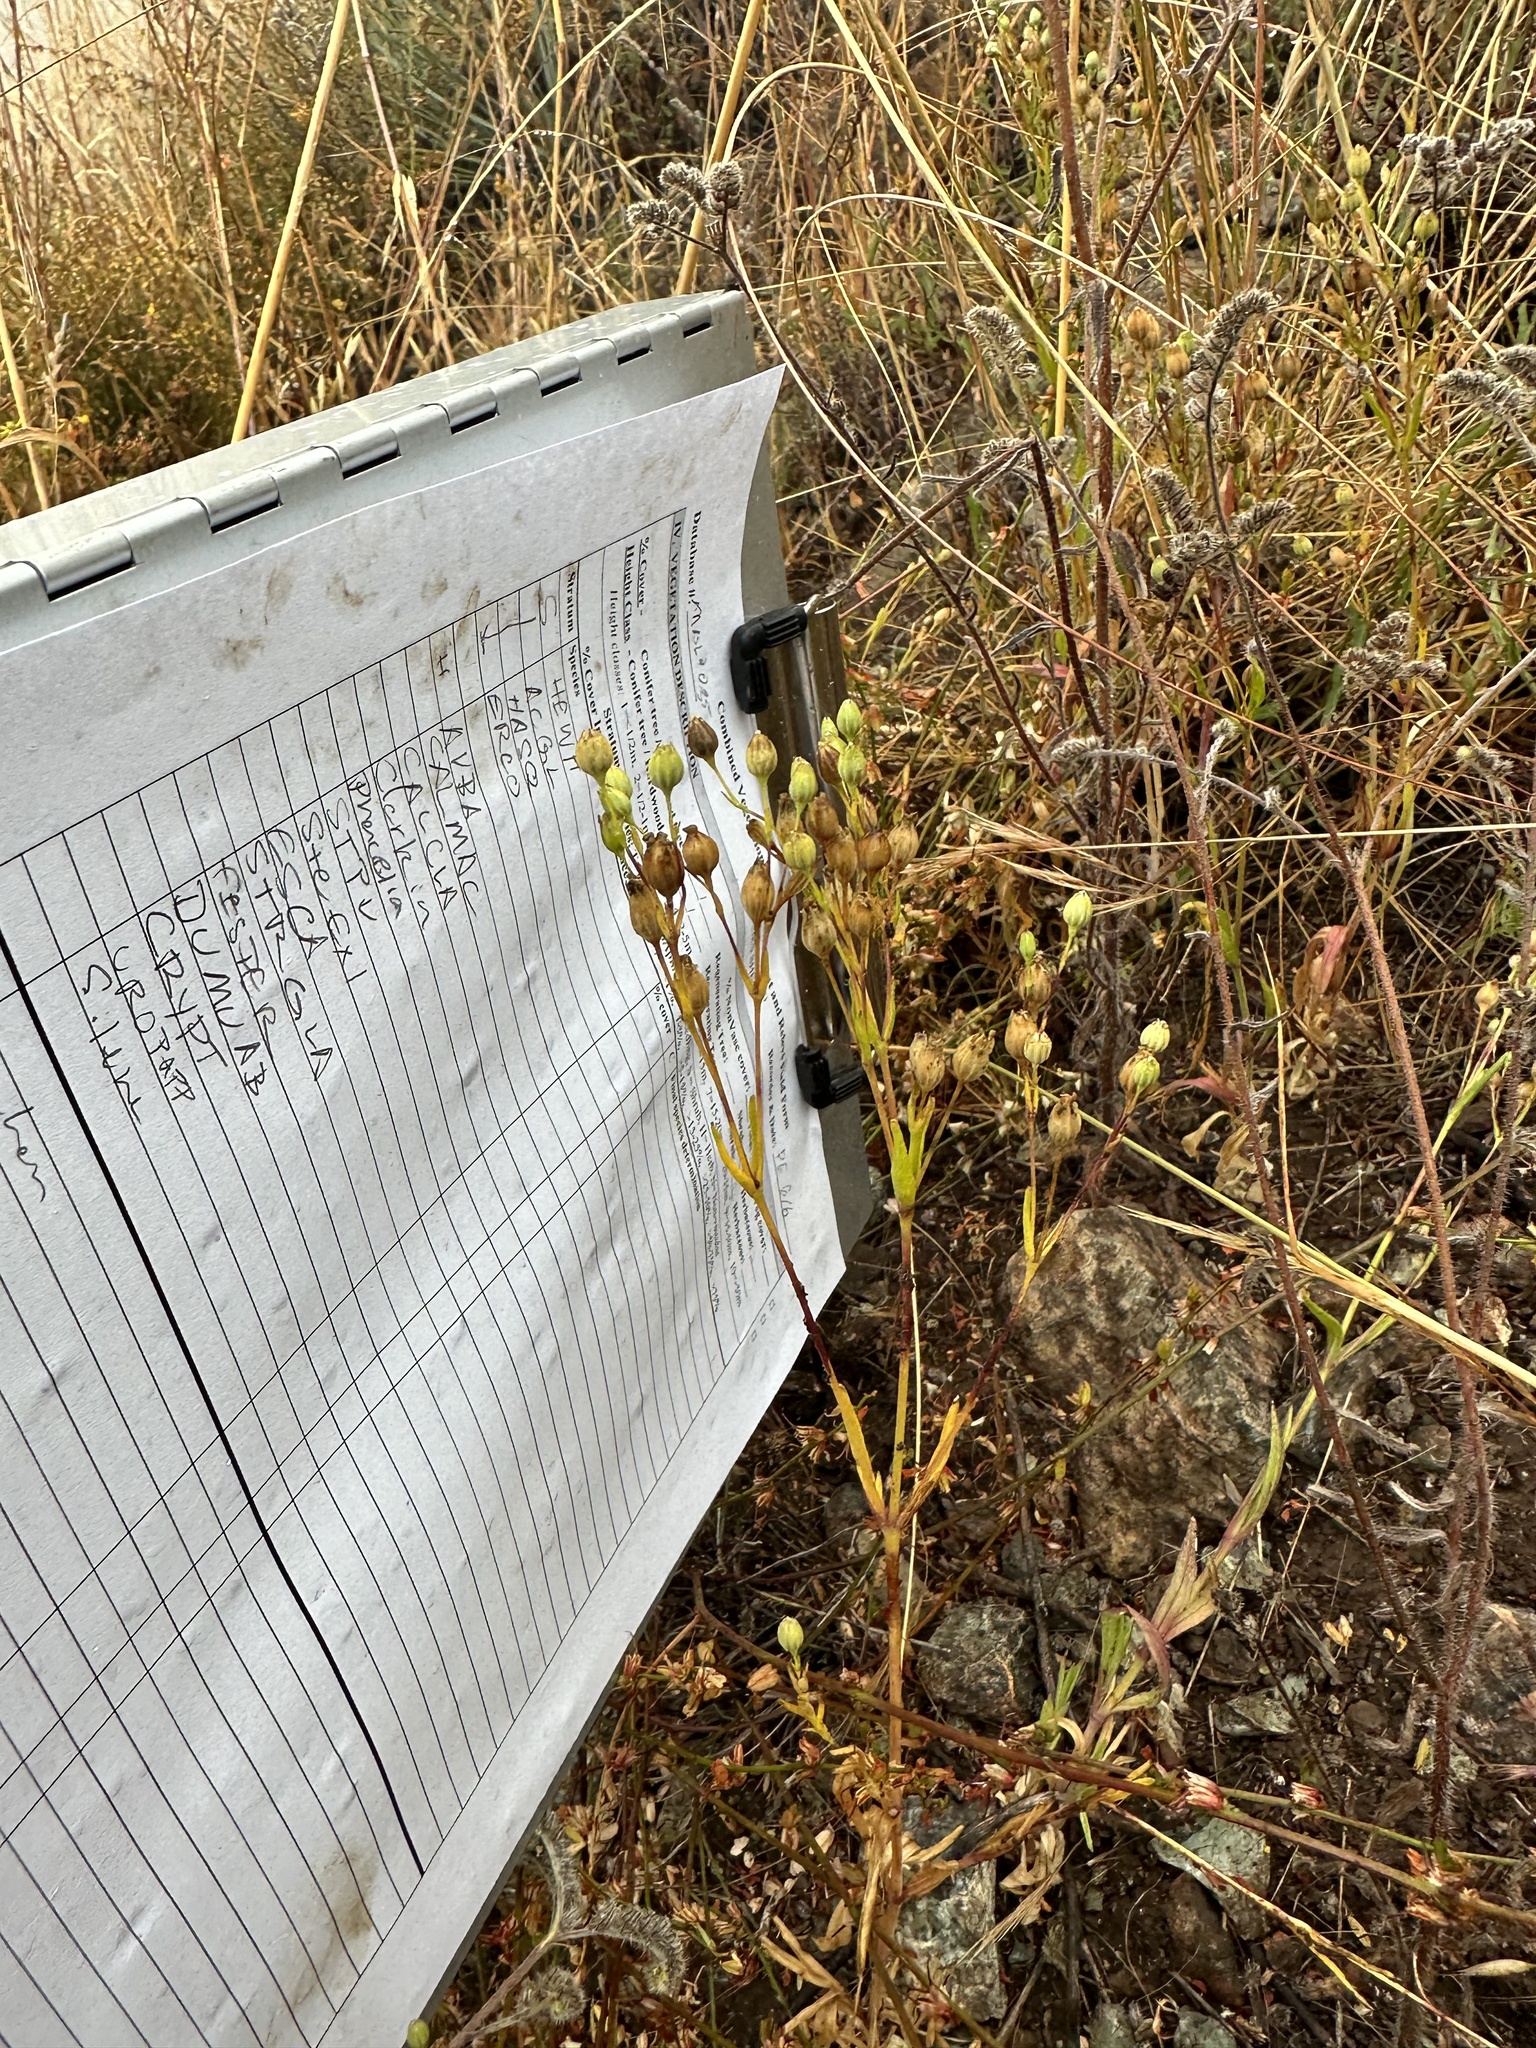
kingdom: Plantae
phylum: Tracheophyta
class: Magnoliopsida
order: Caryophyllales
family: Caryophyllaceae
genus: Silene
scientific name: Silene antirrhina
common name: Sleepy catchfly
